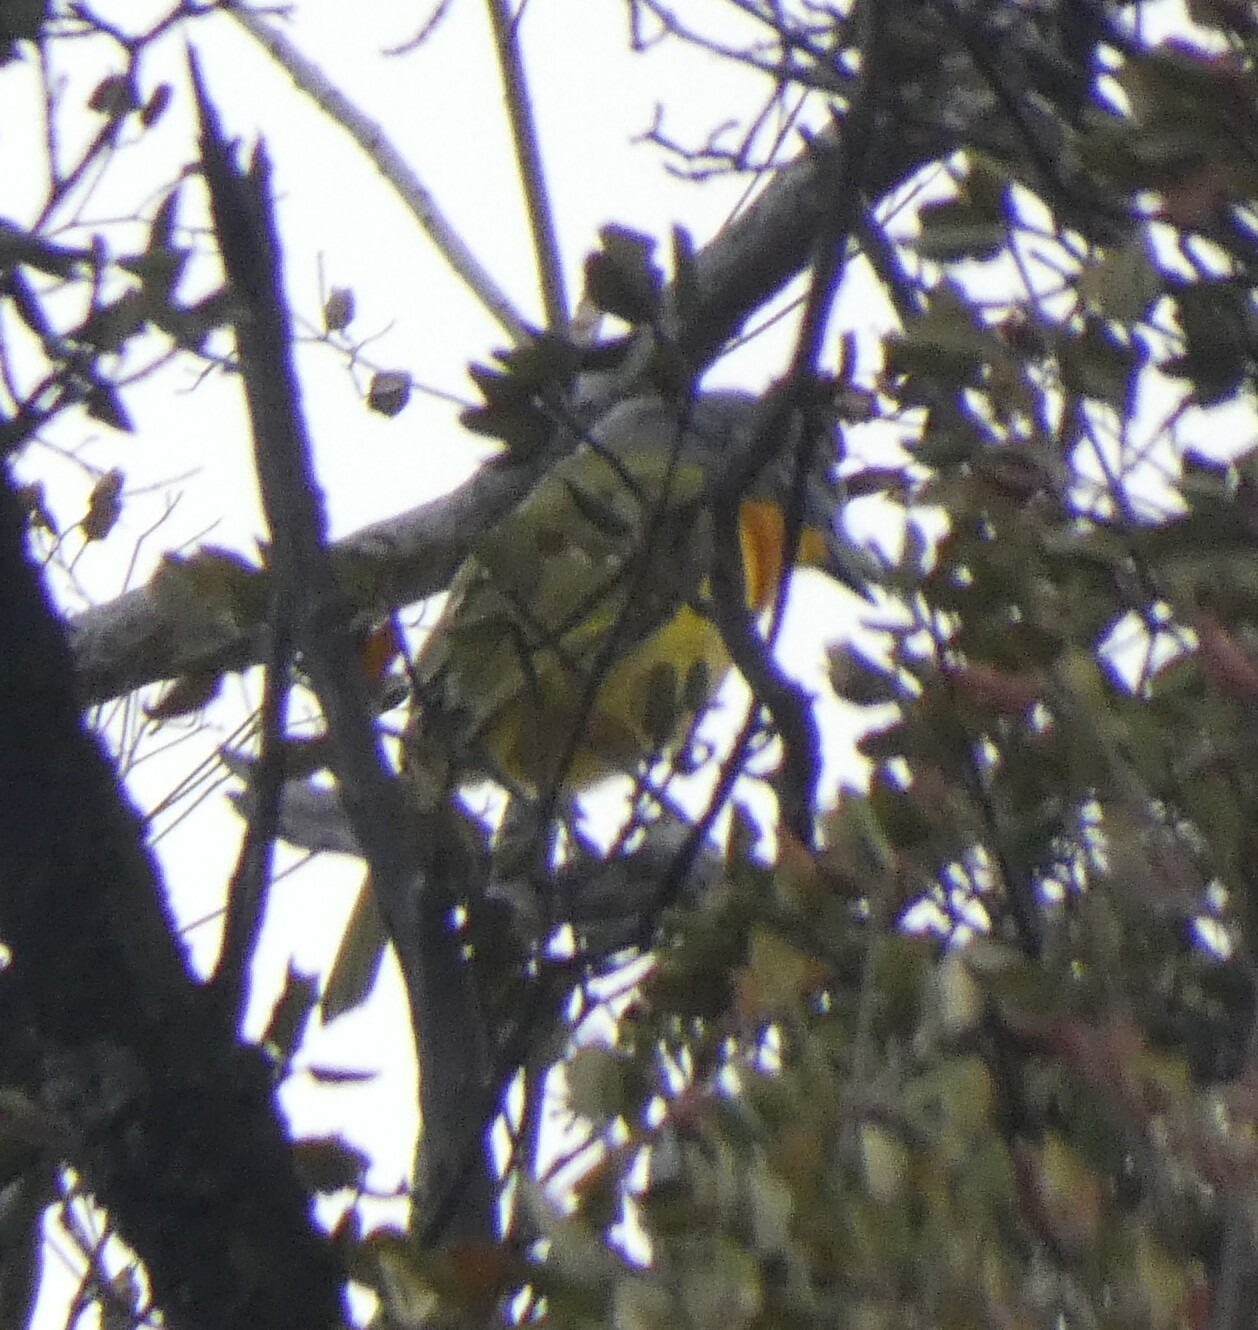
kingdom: Animalia
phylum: Chordata
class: Aves
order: Passeriformes
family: Malaconotidae
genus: Malaconotus
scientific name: Malaconotus blanchoti
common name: Grey-headed bushshrike
